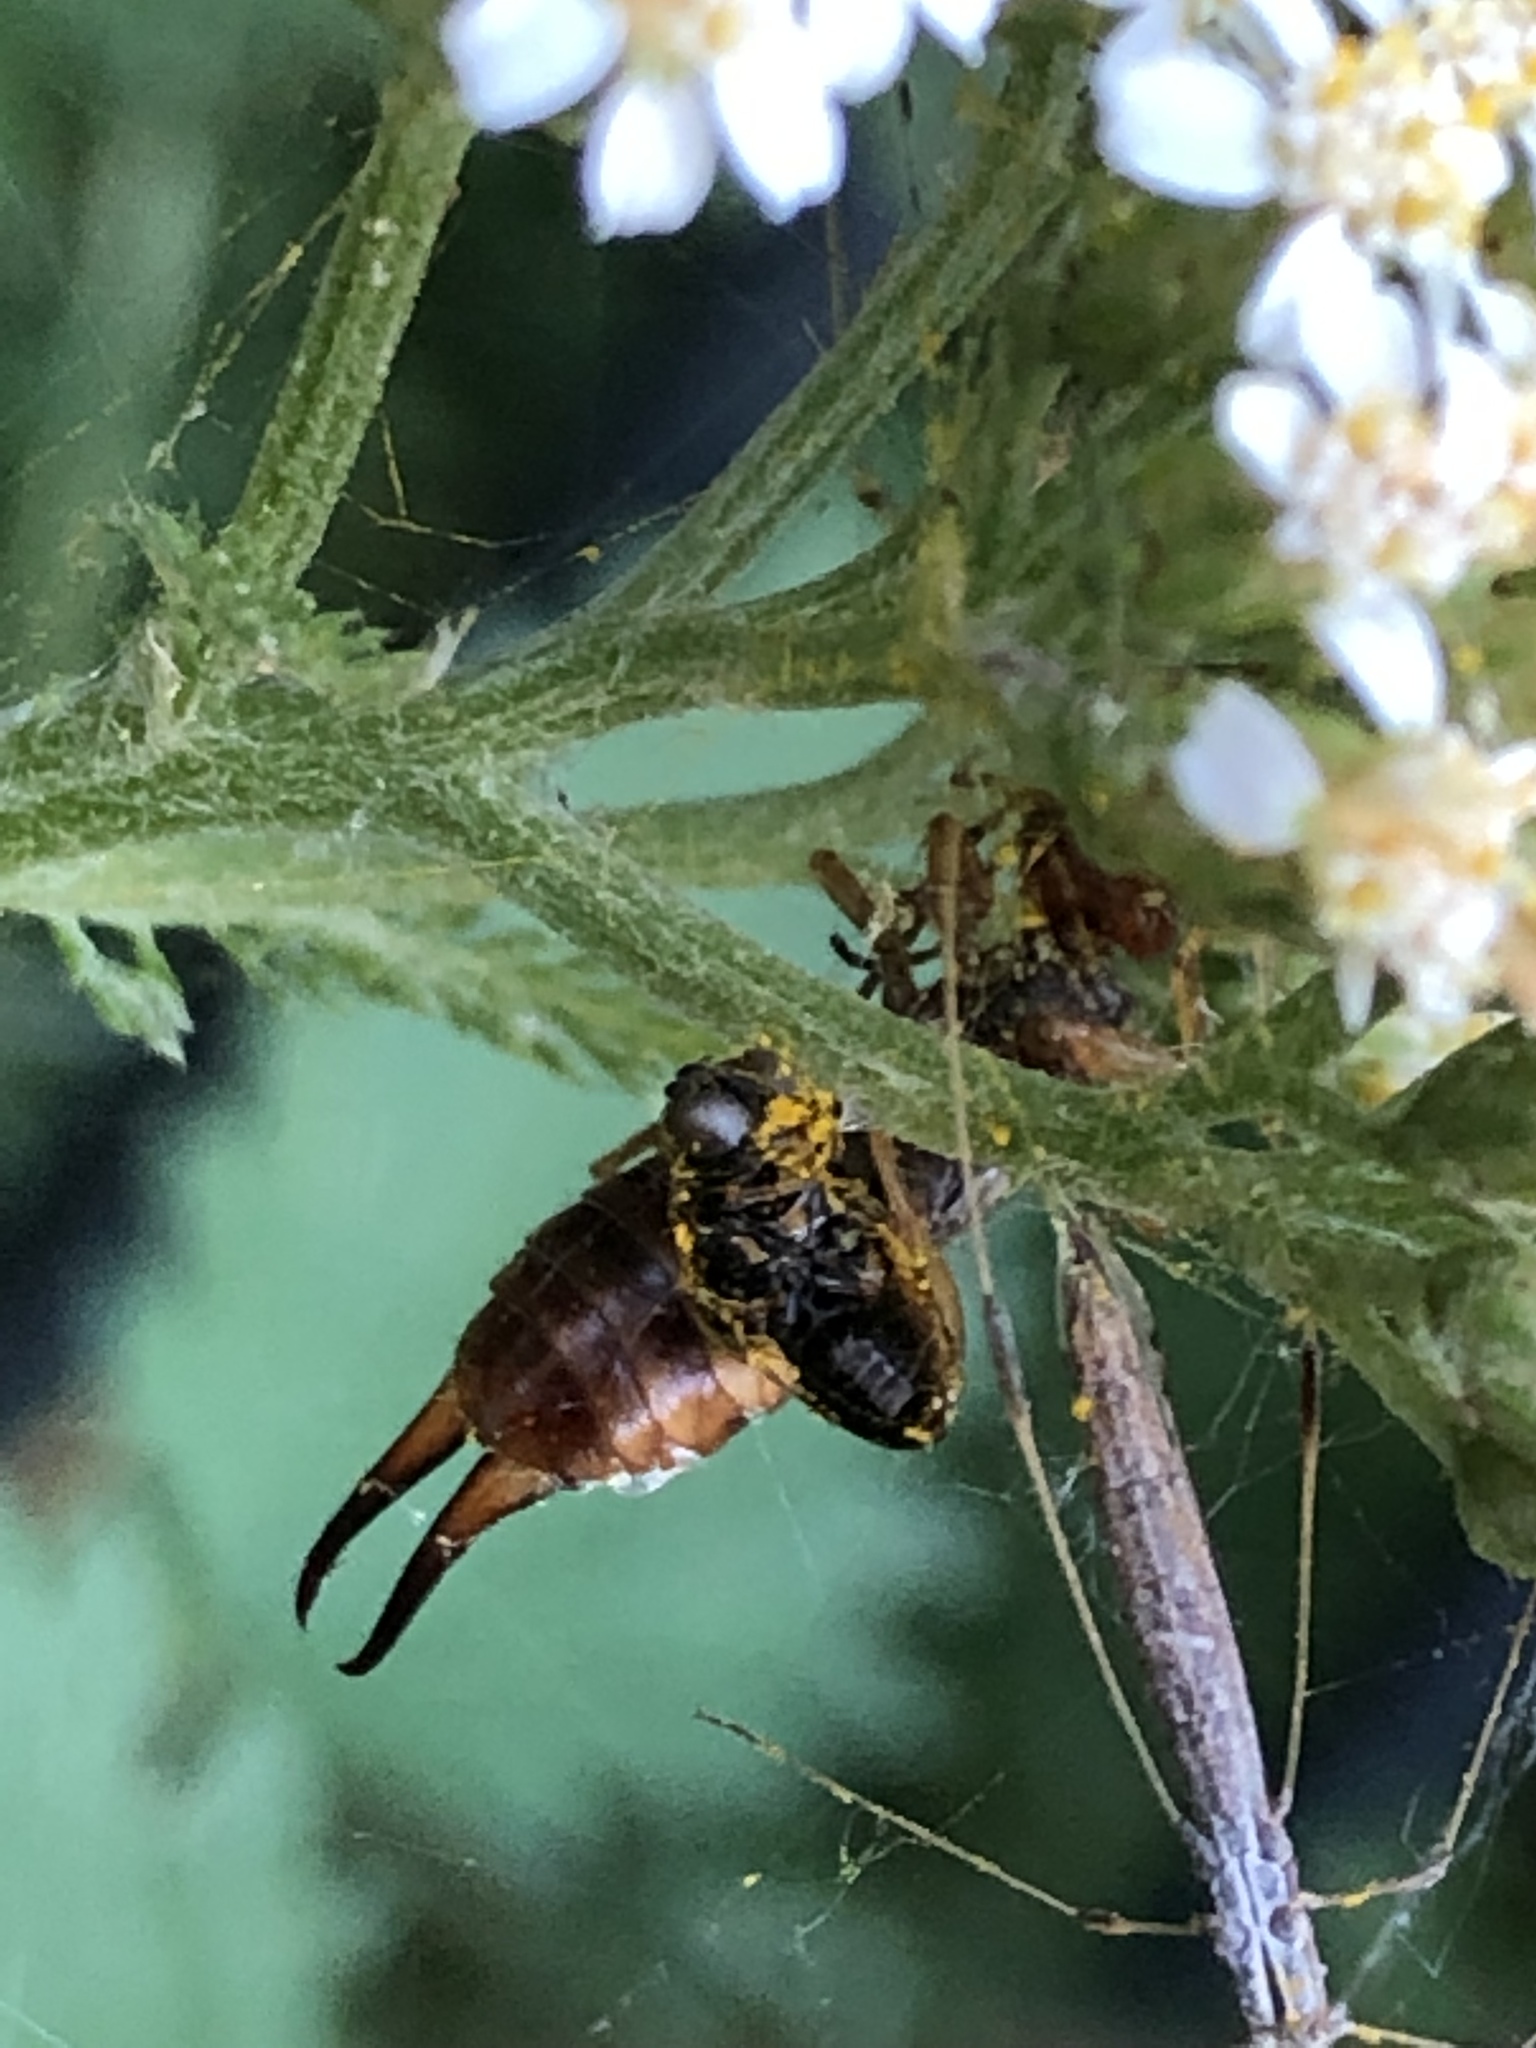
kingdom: Animalia
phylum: Arthropoda
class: Insecta
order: Dermaptera
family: Forficulidae
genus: Forficula
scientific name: Forficula
